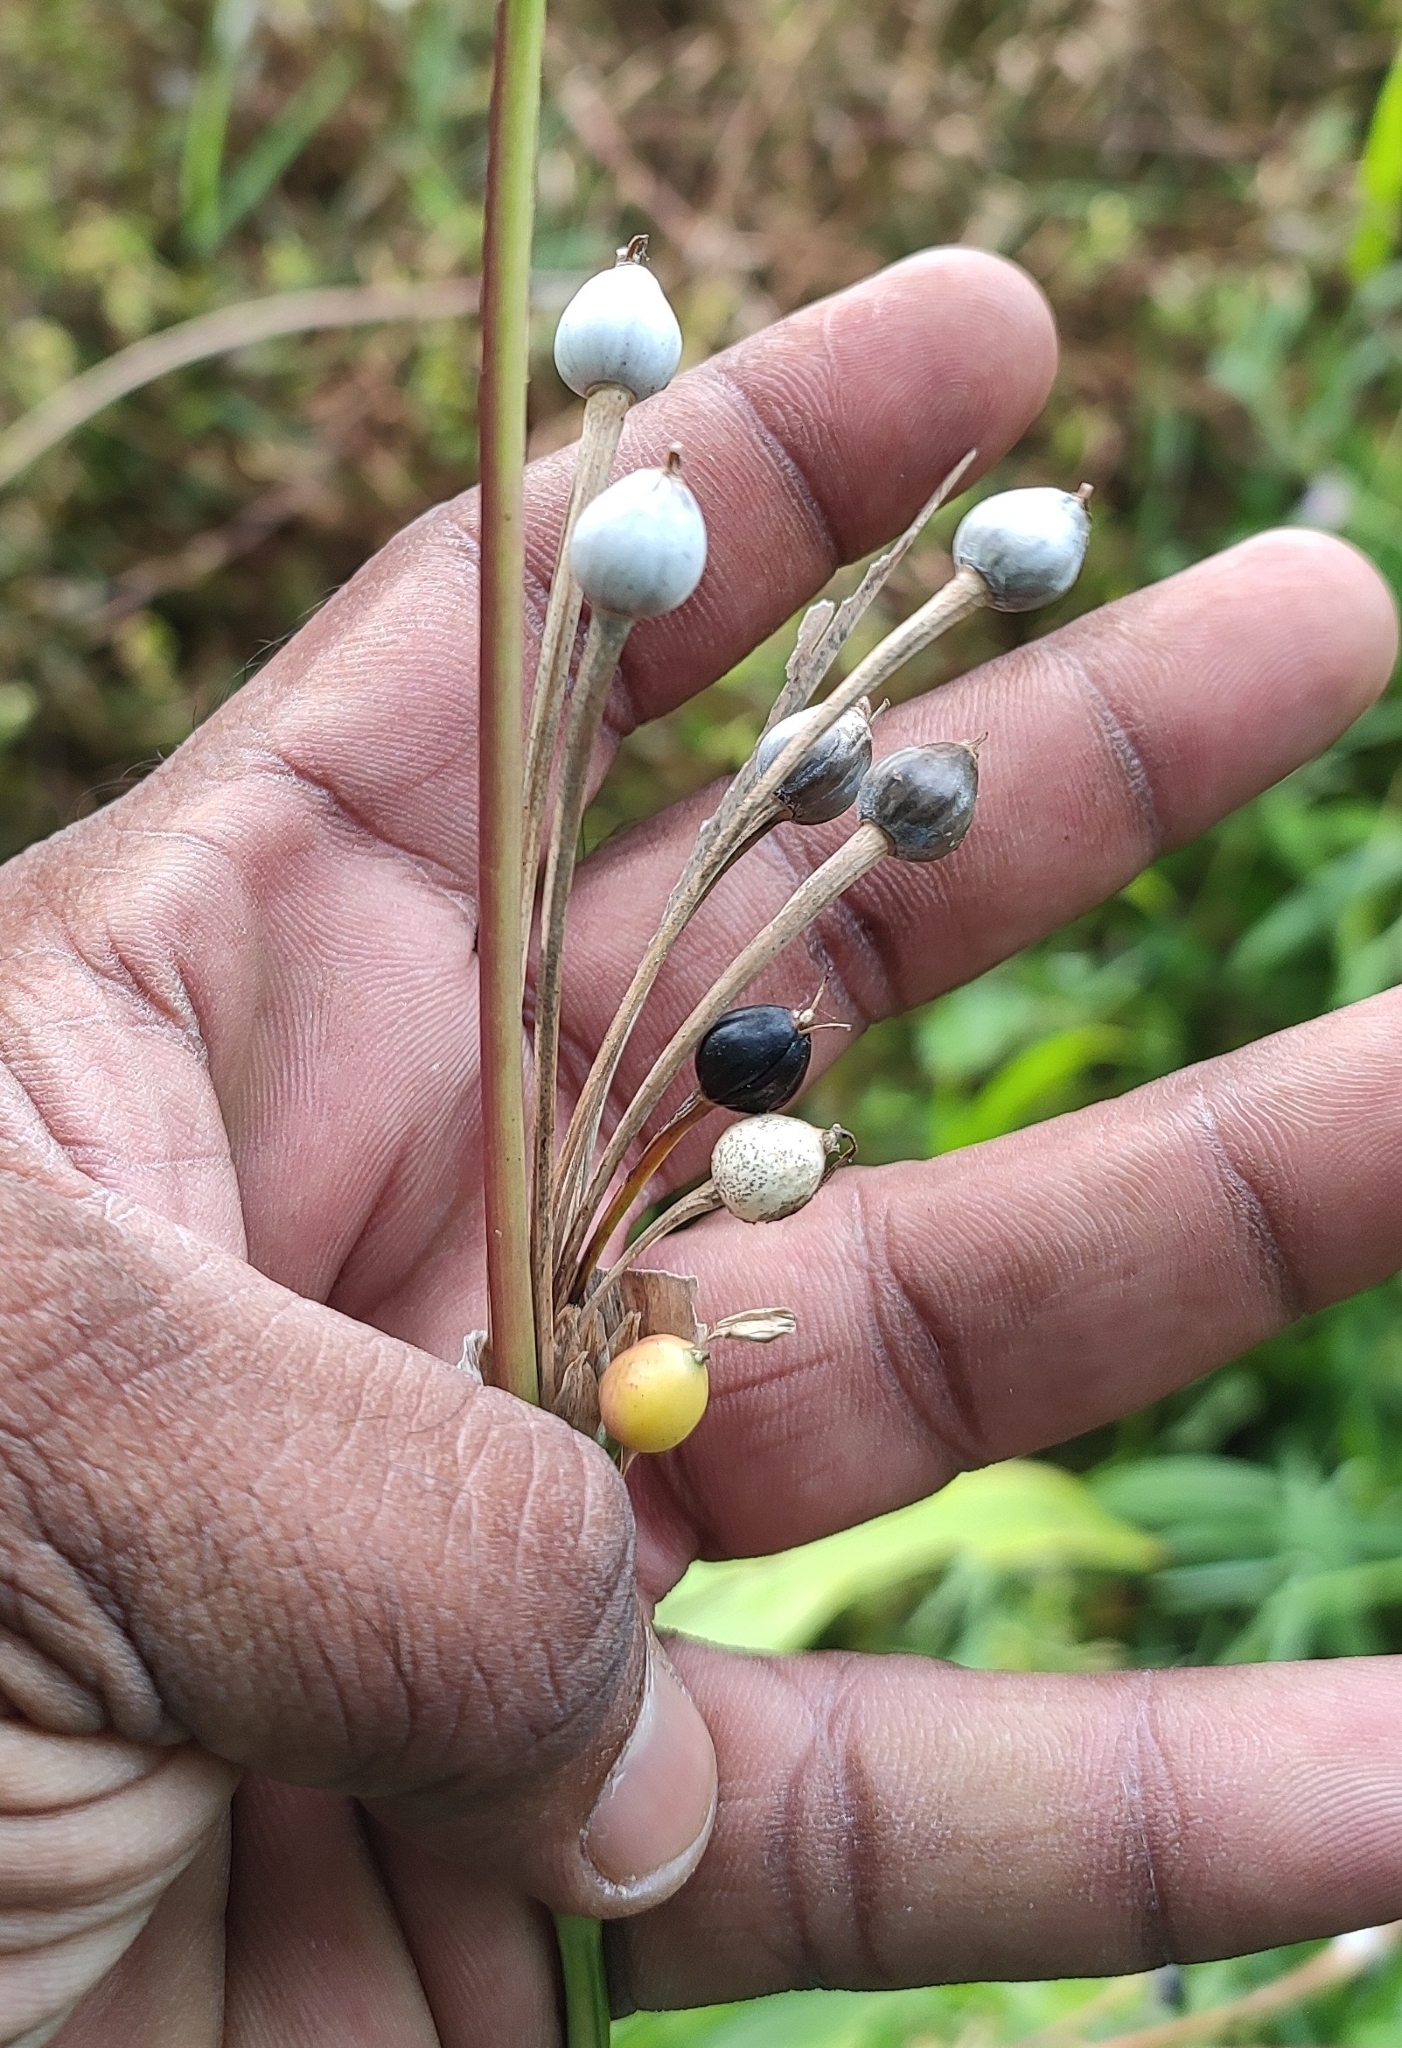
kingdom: Plantae
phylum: Tracheophyta
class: Liliopsida
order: Poales
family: Poaceae
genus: Coix
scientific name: Coix lacryma-jobi
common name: Job's tears
